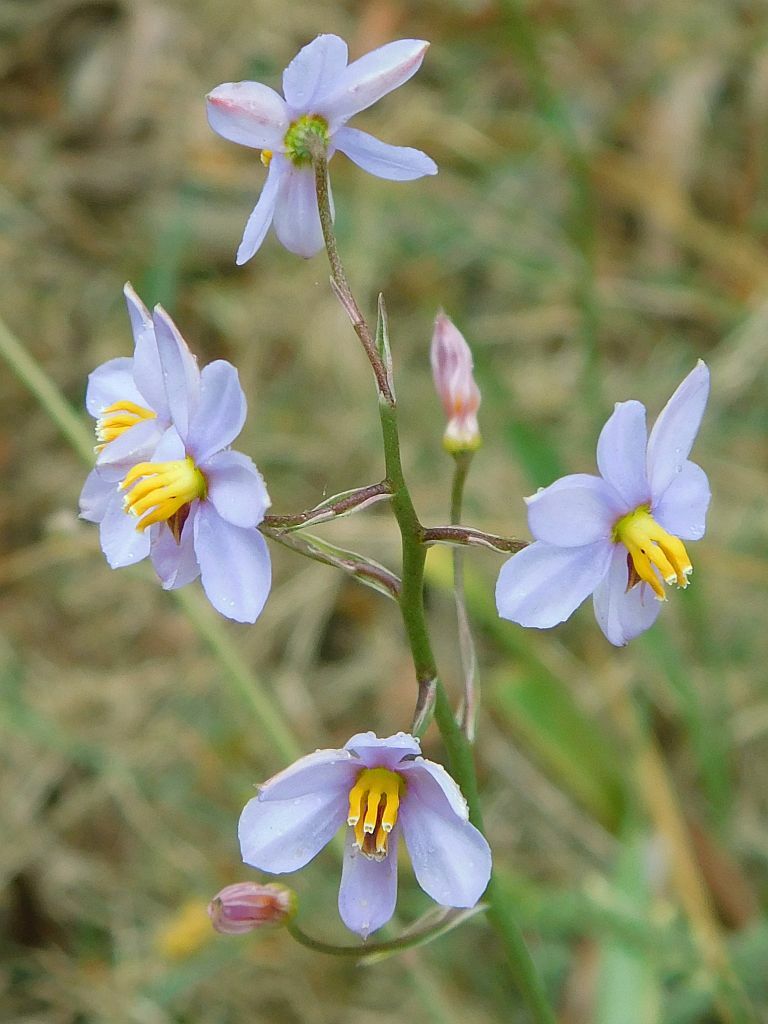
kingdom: Plantae
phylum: Tracheophyta
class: Liliopsida
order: Asparagales
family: Tecophilaeaceae
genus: Cyanella
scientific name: Cyanella hyacinthoides
